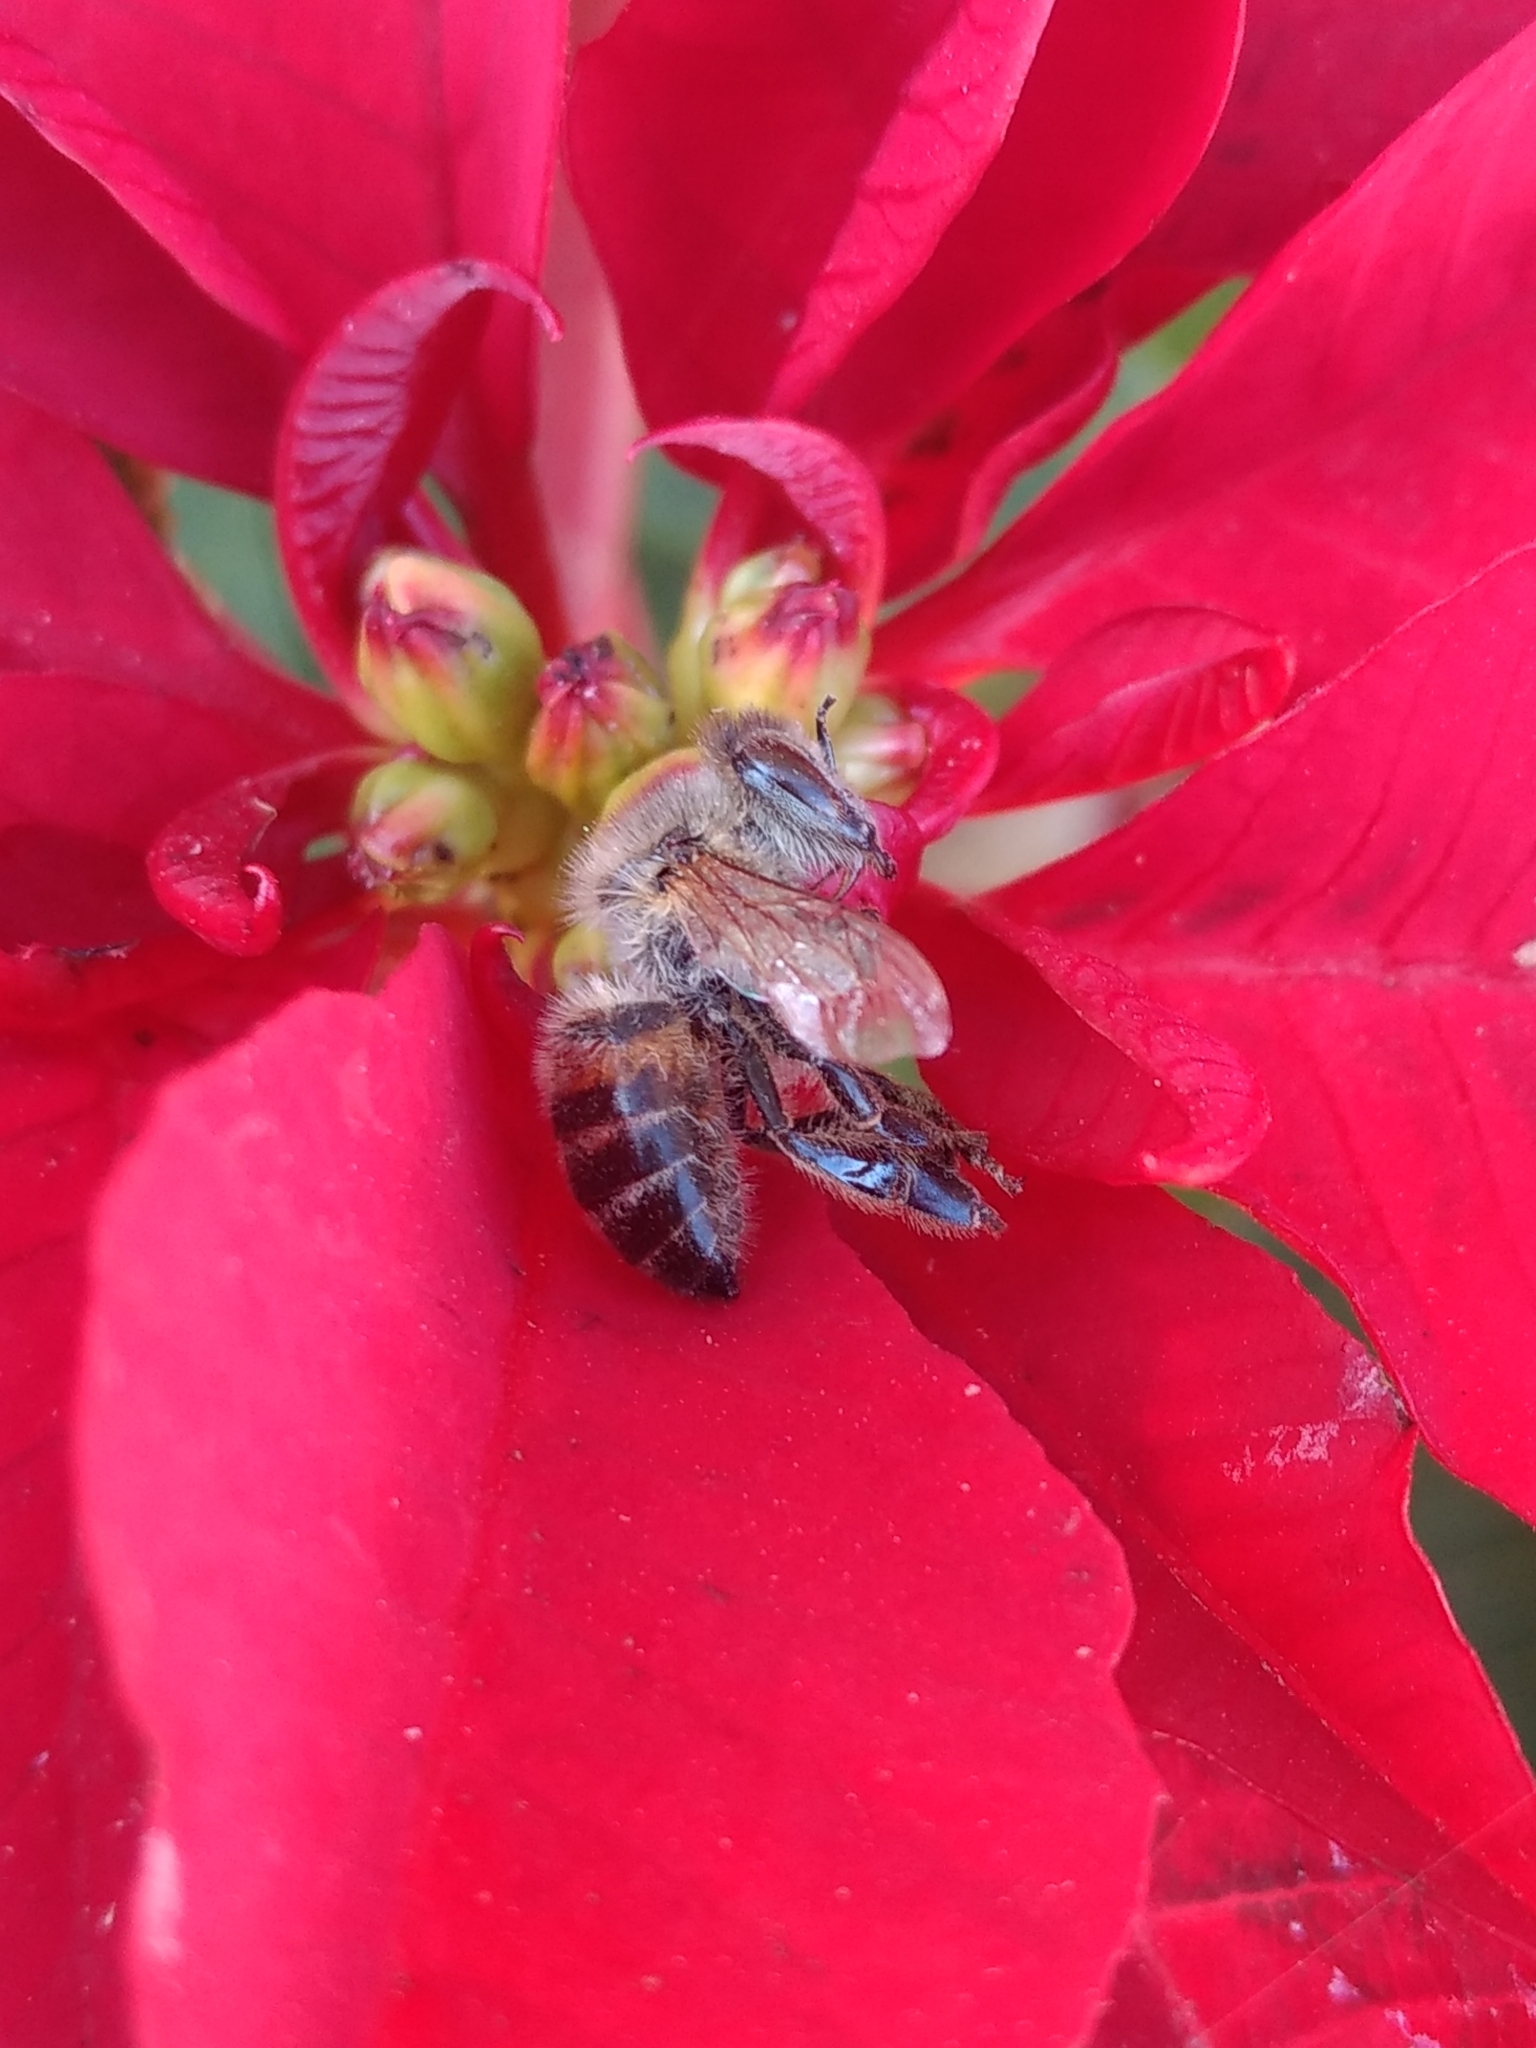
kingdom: Animalia
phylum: Arthropoda
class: Insecta
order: Hymenoptera
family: Apidae
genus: Apis
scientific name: Apis mellifera
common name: Honey bee
